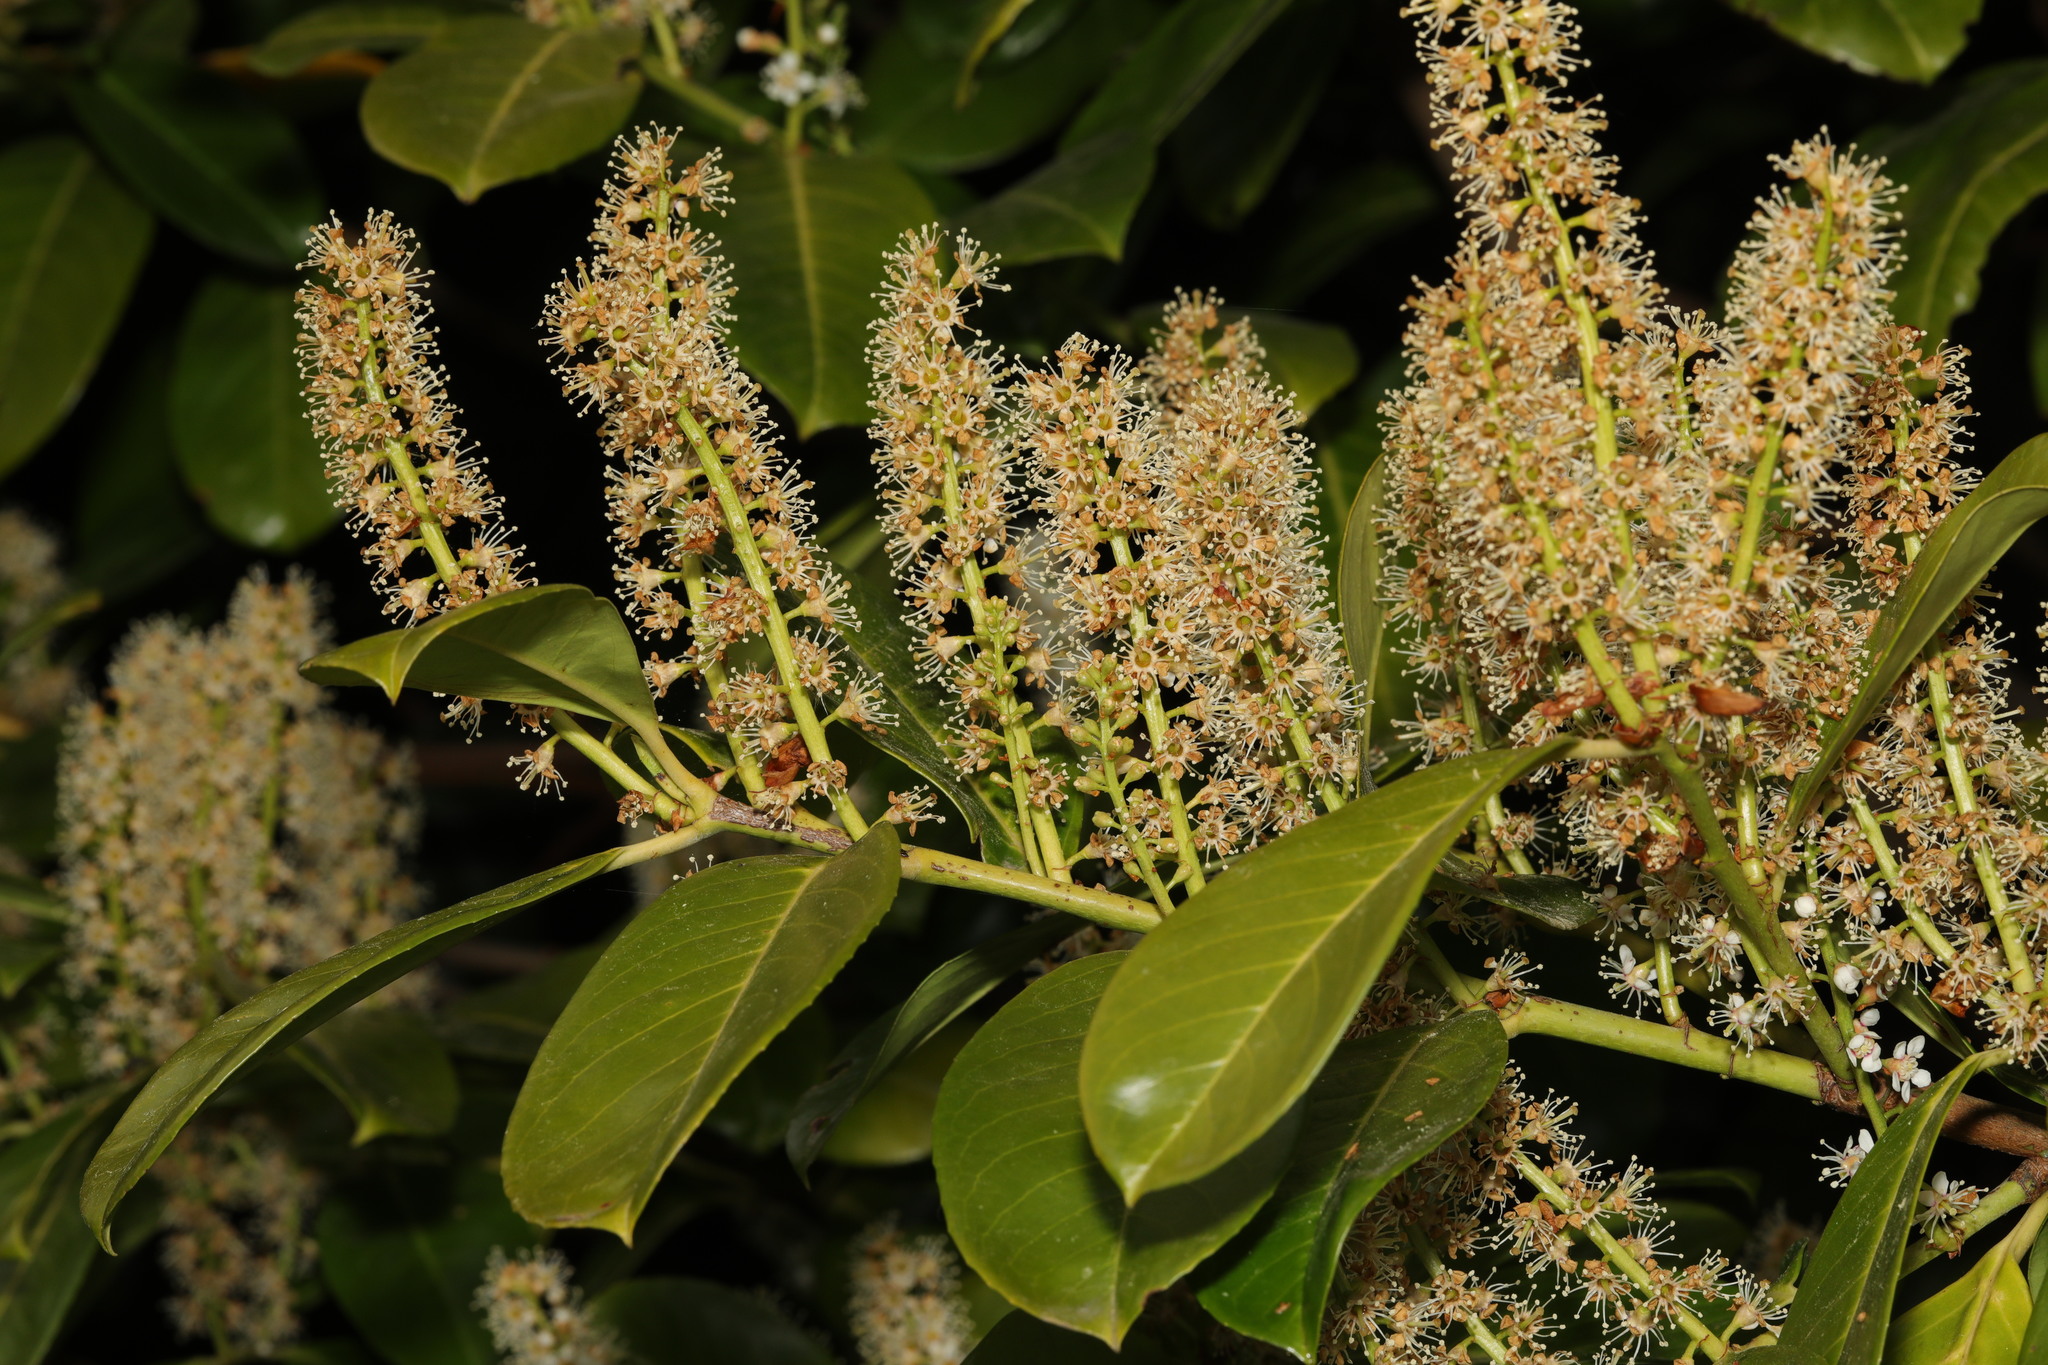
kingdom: Plantae
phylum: Tracheophyta
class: Magnoliopsida
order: Rosales
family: Rosaceae
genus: Prunus
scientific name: Prunus laurocerasus
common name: Cherry laurel
